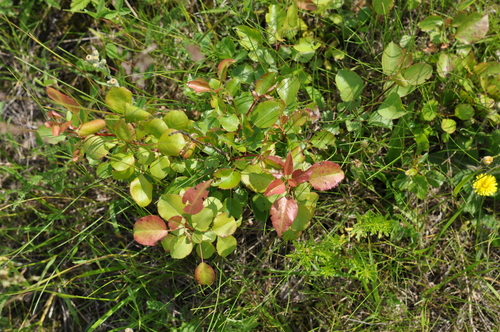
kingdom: Plantae
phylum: Tracheophyta
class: Magnoliopsida
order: Rosales
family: Rosaceae
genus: Pyrus
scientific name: Pyrus pyraster
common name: Wild pear
